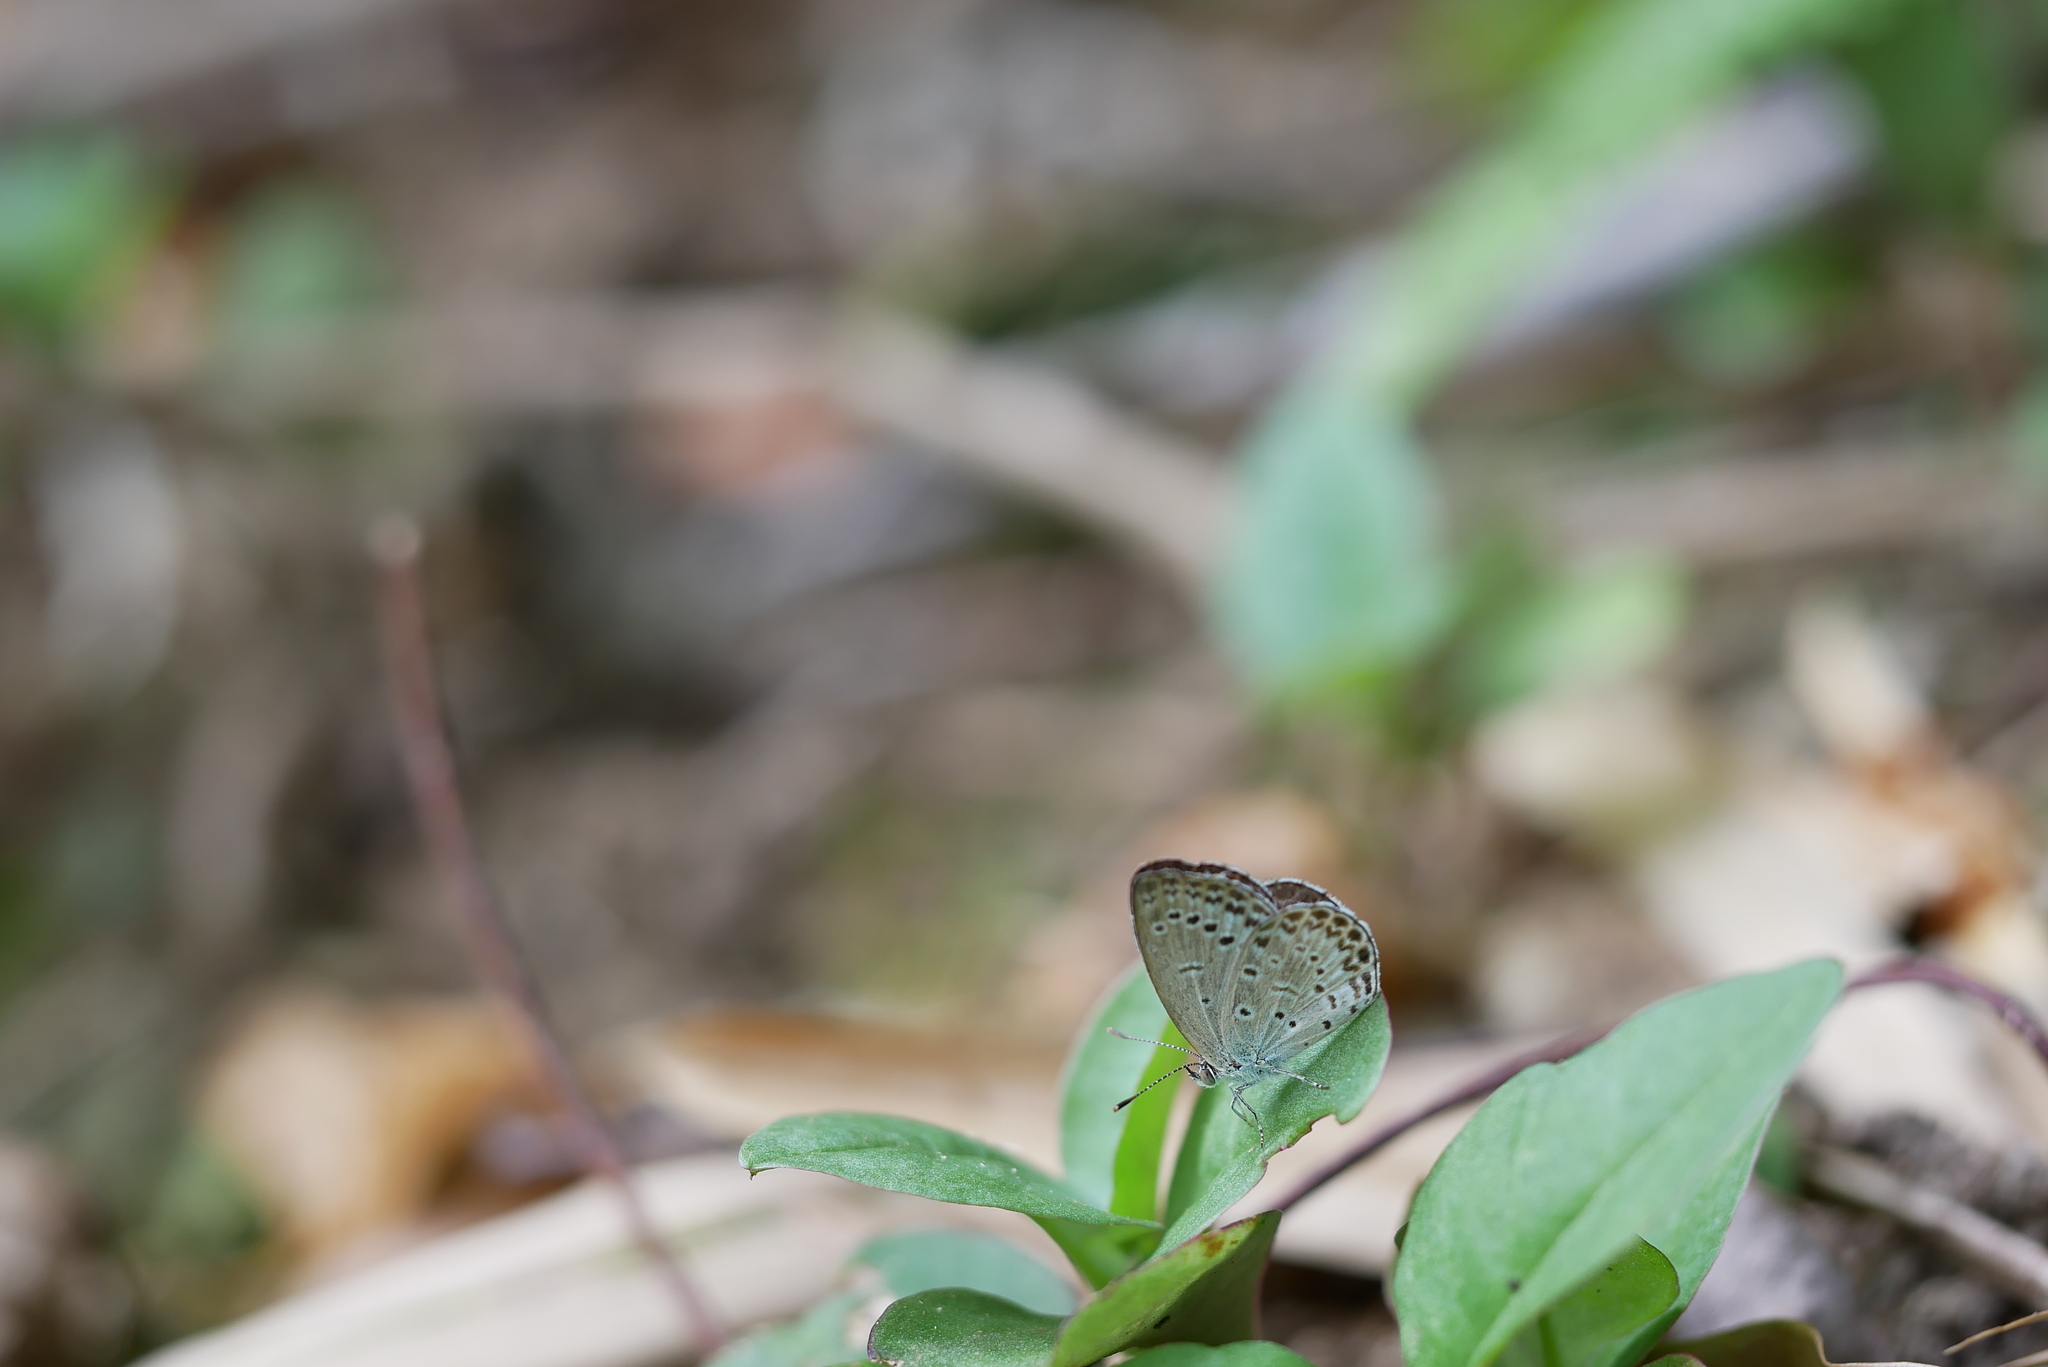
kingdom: Animalia
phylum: Arthropoda
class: Insecta
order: Lepidoptera
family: Lycaenidae
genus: Pseudozizeeria
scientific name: Pseudozizeeria maha
